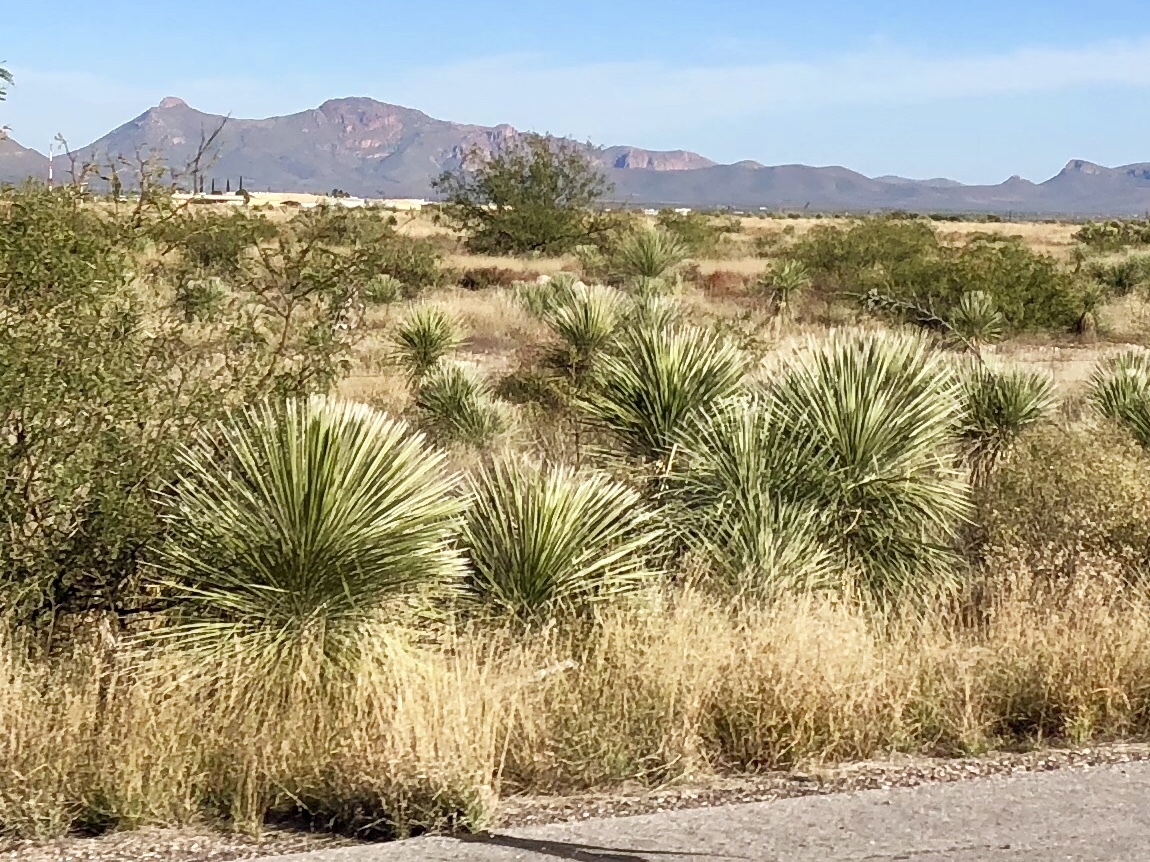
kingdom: Plantae
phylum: Tracheophyta
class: Liliopsida
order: Asparagales
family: Asparagaceae
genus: Yucca
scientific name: Yucca elata
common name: Palmella
